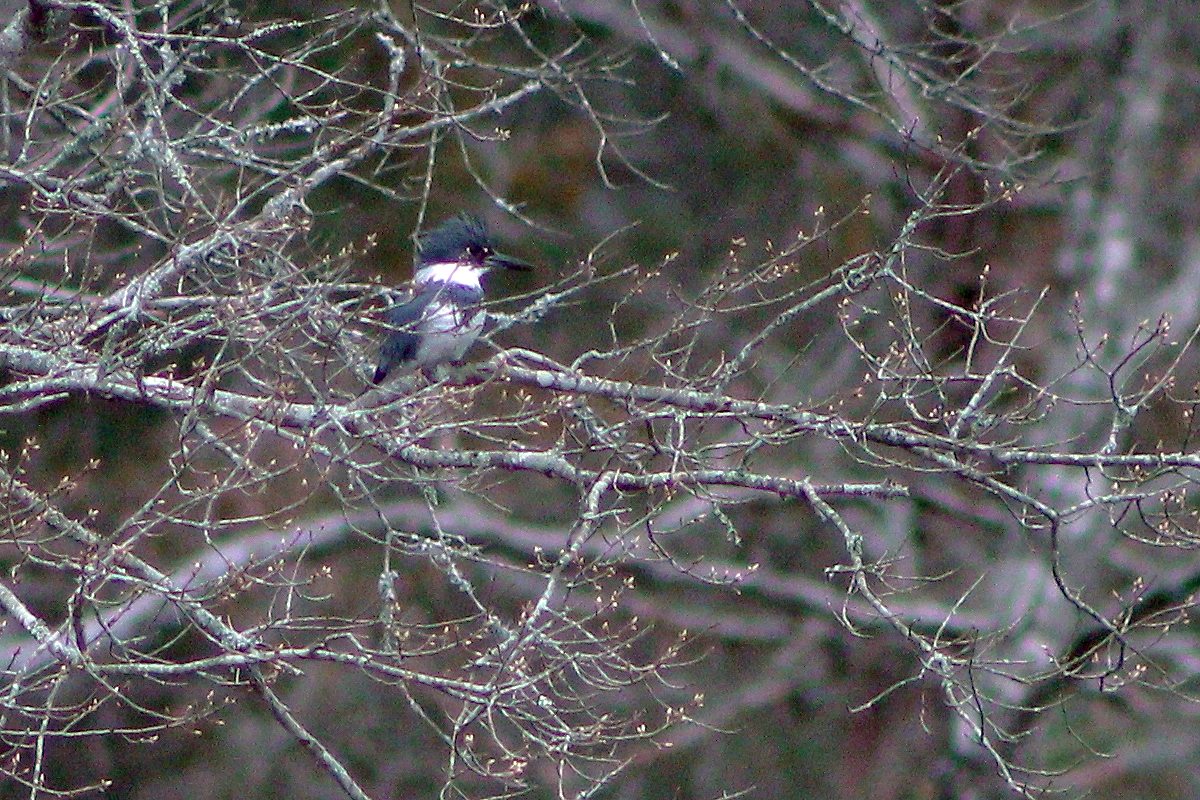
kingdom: Animalia
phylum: Chordata
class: Aves
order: Coraciiformes
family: Alcedinidae
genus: Megaceryle
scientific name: Megaceryle alcyon
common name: Belted kingfisher
